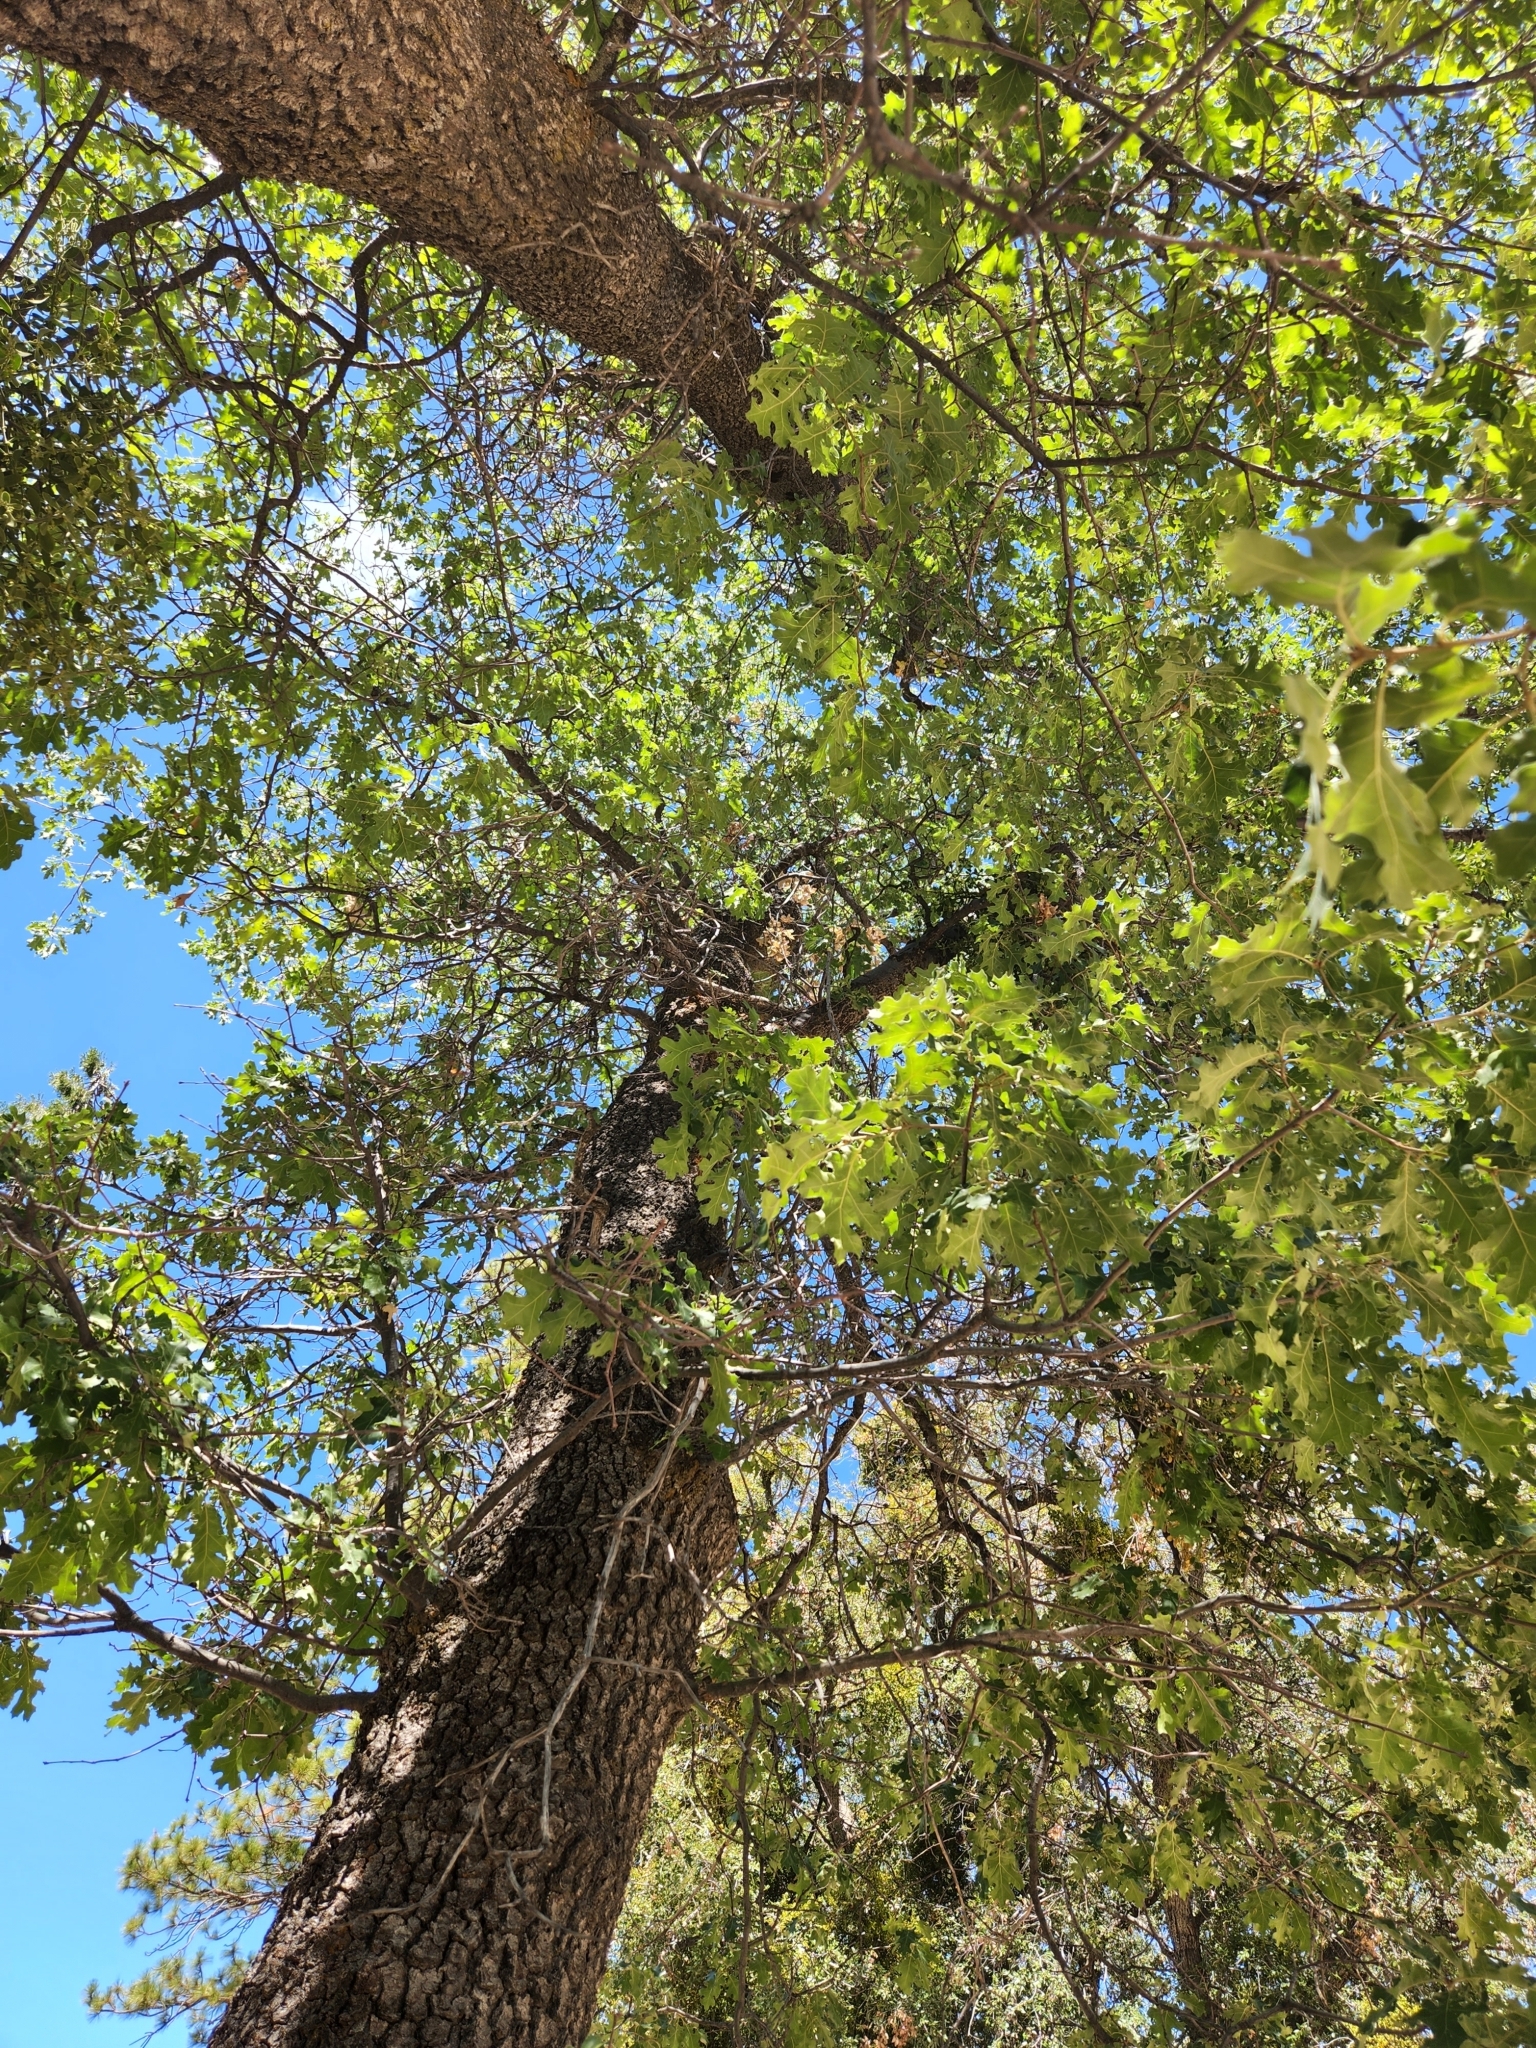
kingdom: Plantae
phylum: Tracheophyta
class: Magnoliopsida
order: Fagales
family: Fagaceae
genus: Quercus
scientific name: Quercus kelloggii
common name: California black oak
